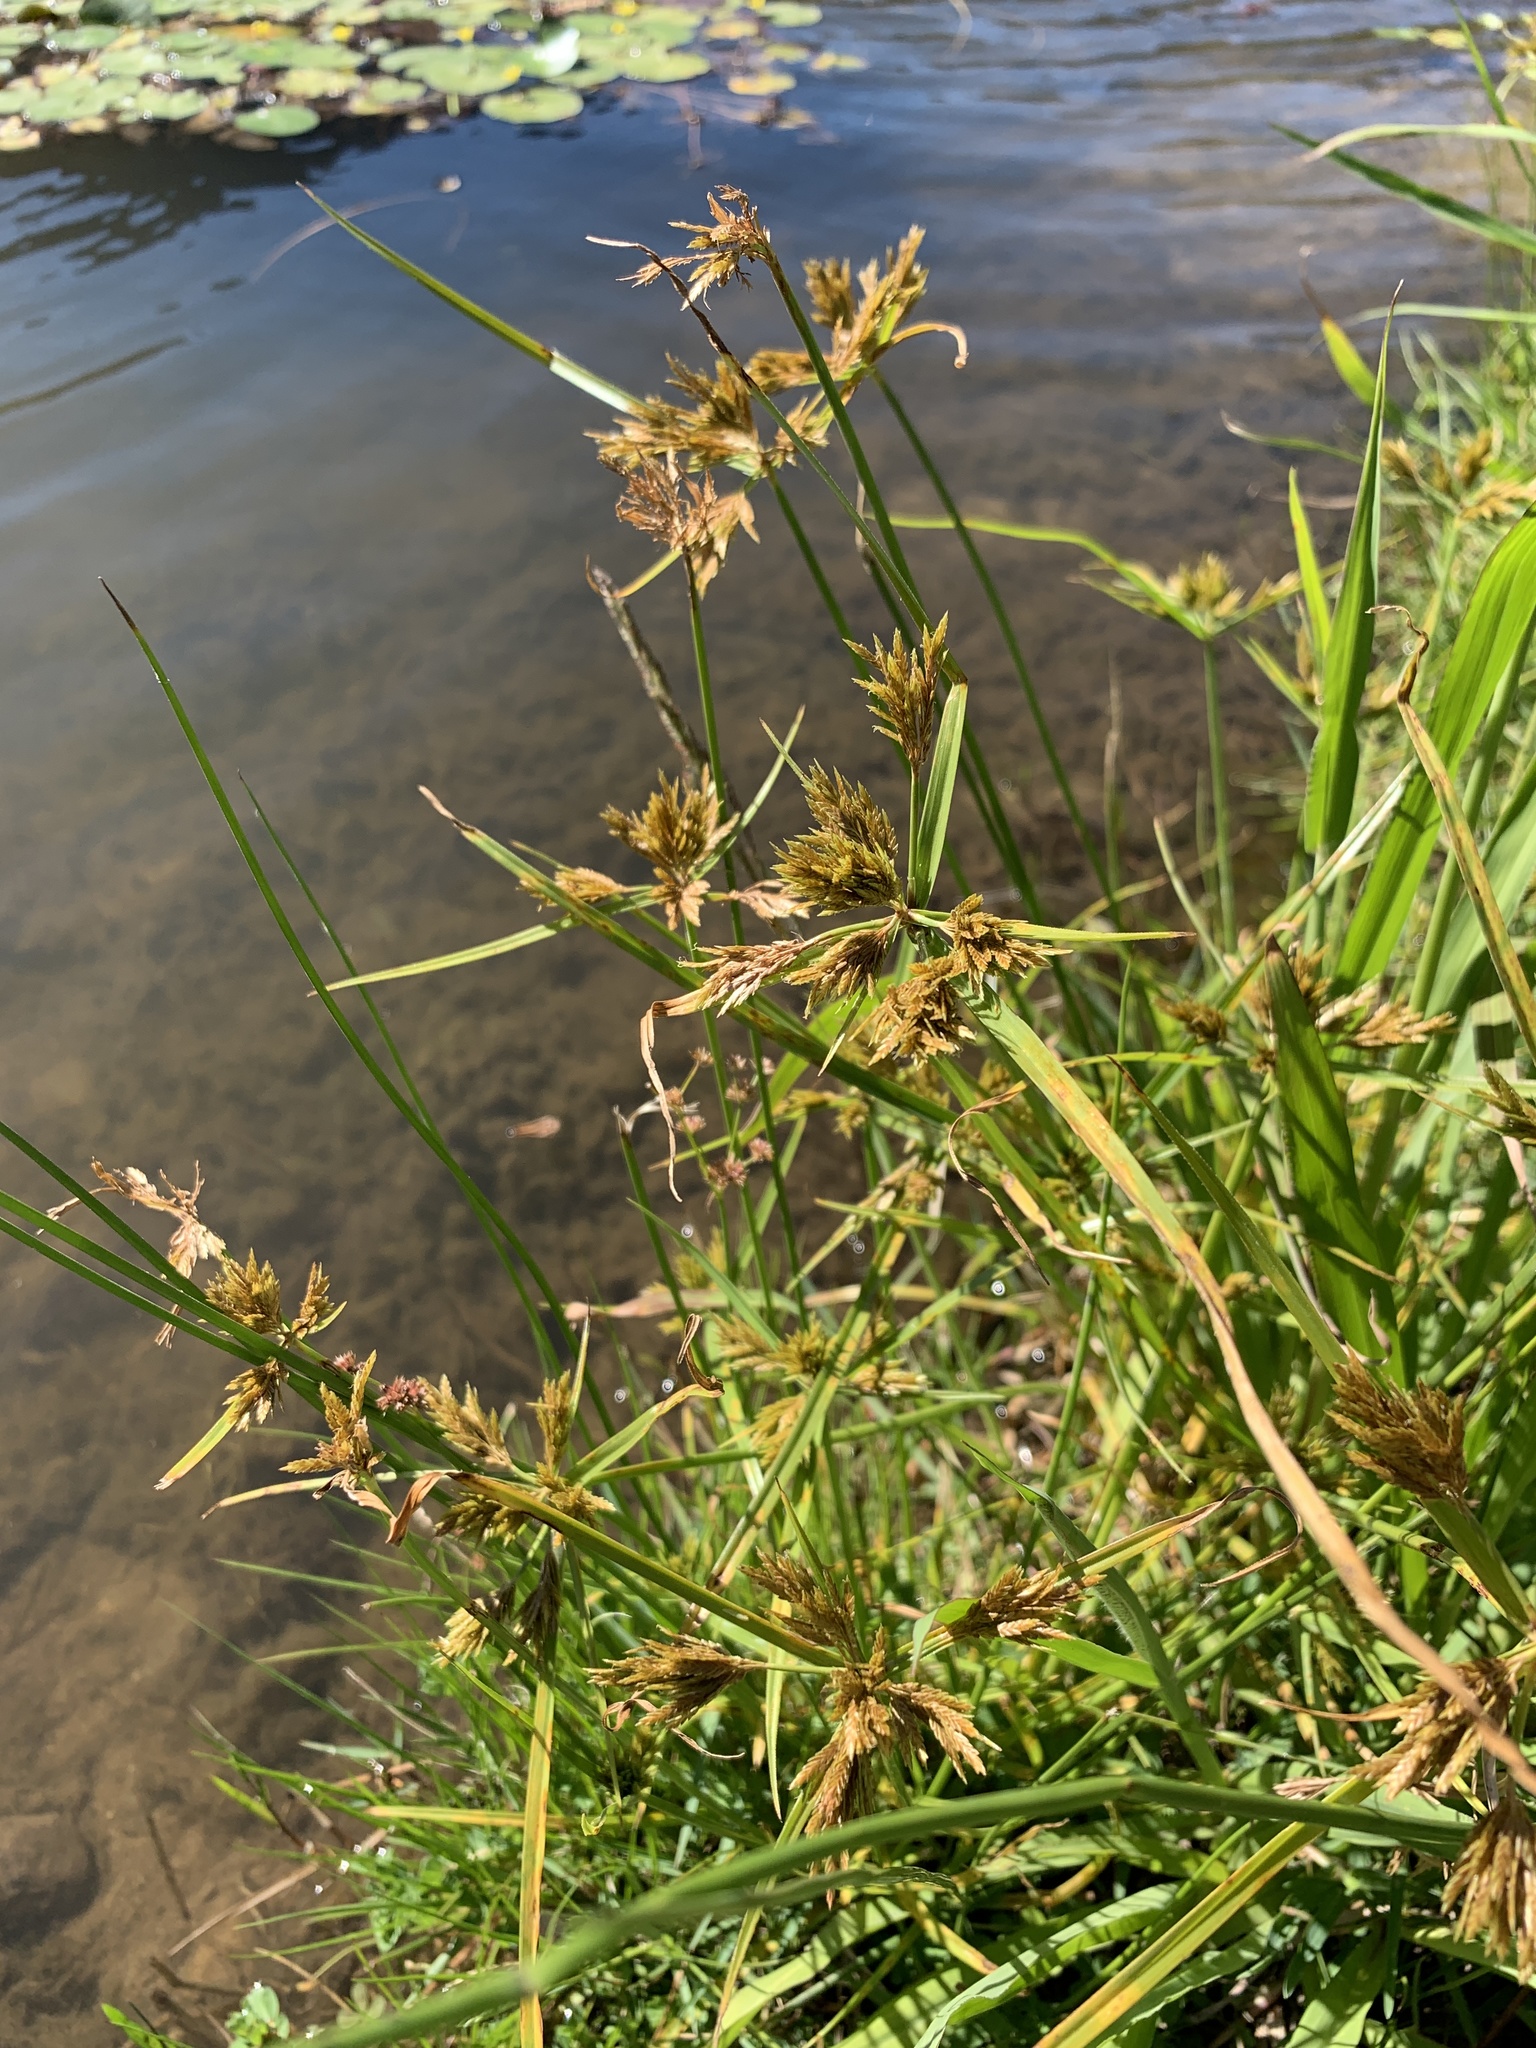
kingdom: Plantae
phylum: Tracheophyta
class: Liliopsida
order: Poales
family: Cyperaceae
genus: Cyperus
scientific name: Cyperus polystachyos
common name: Bunchy flat sedge
